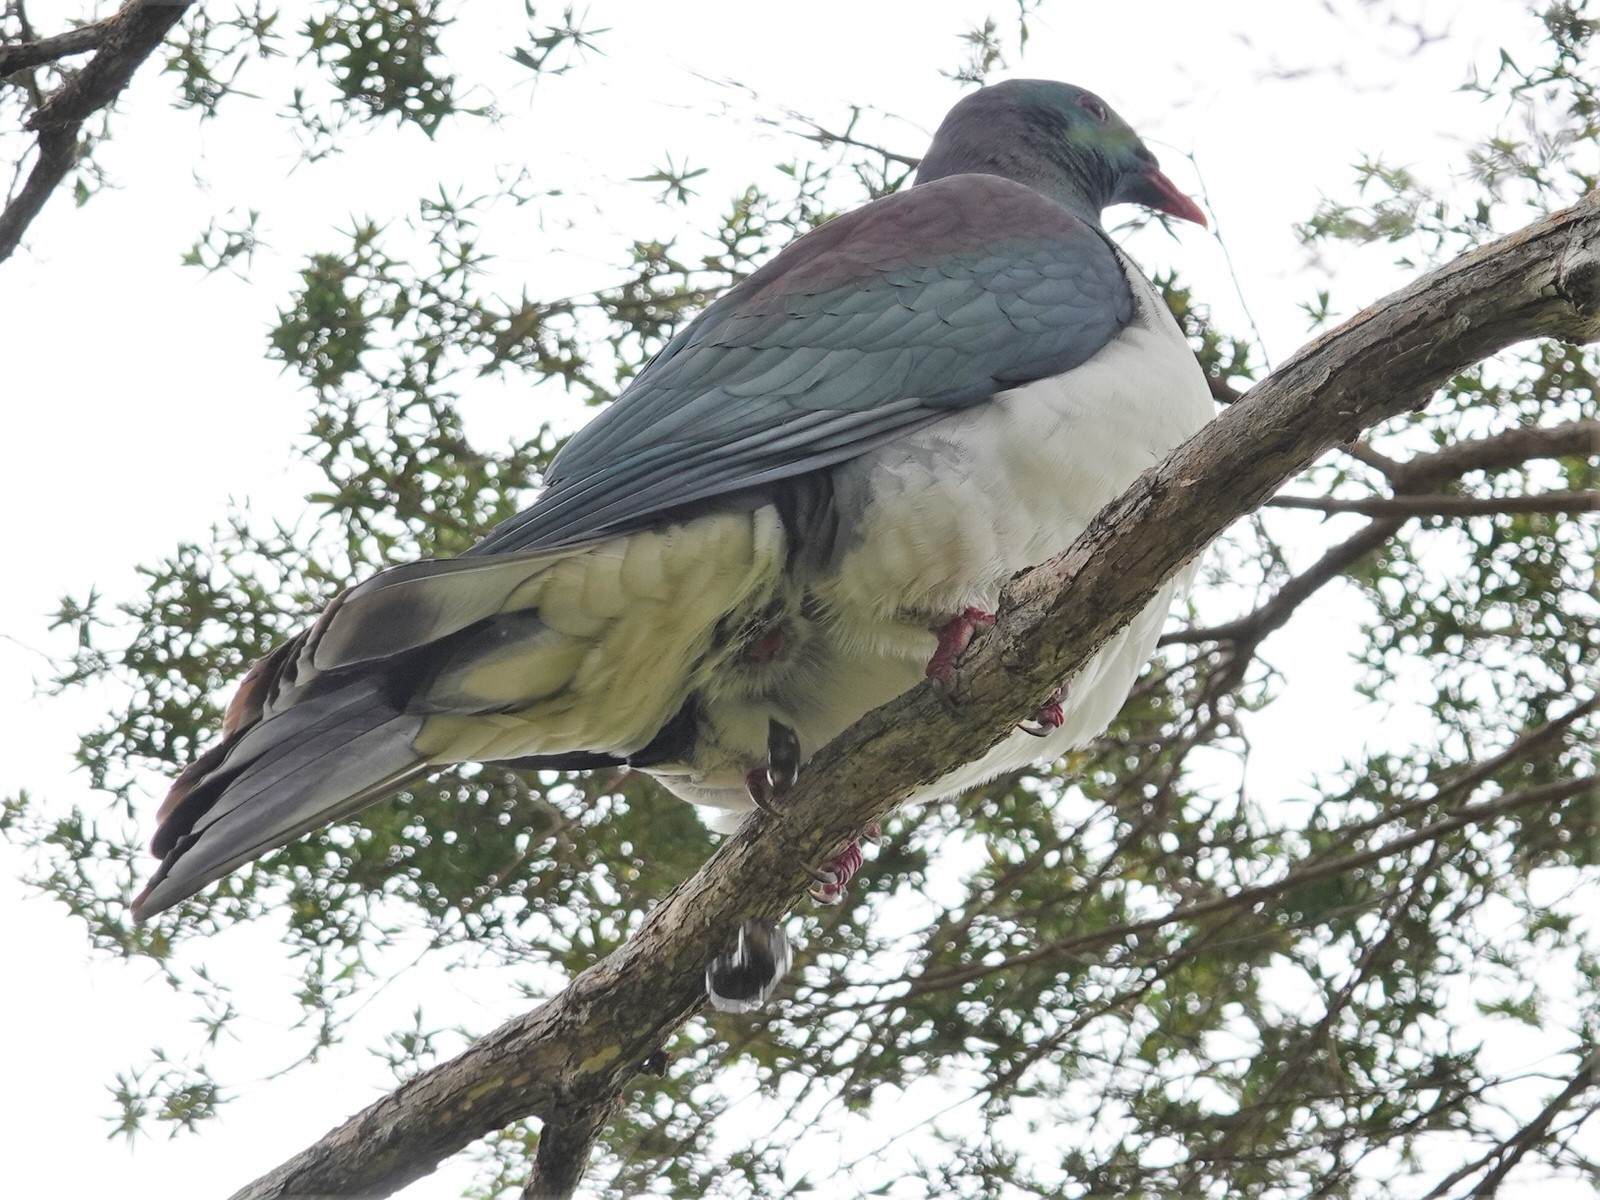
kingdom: Animalia
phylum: Chordata
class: Aves
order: Columbiformes
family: Columbidae
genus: Hemiphaga
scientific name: Hemiphaga novaeseelandiae
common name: New zealand pigeon
